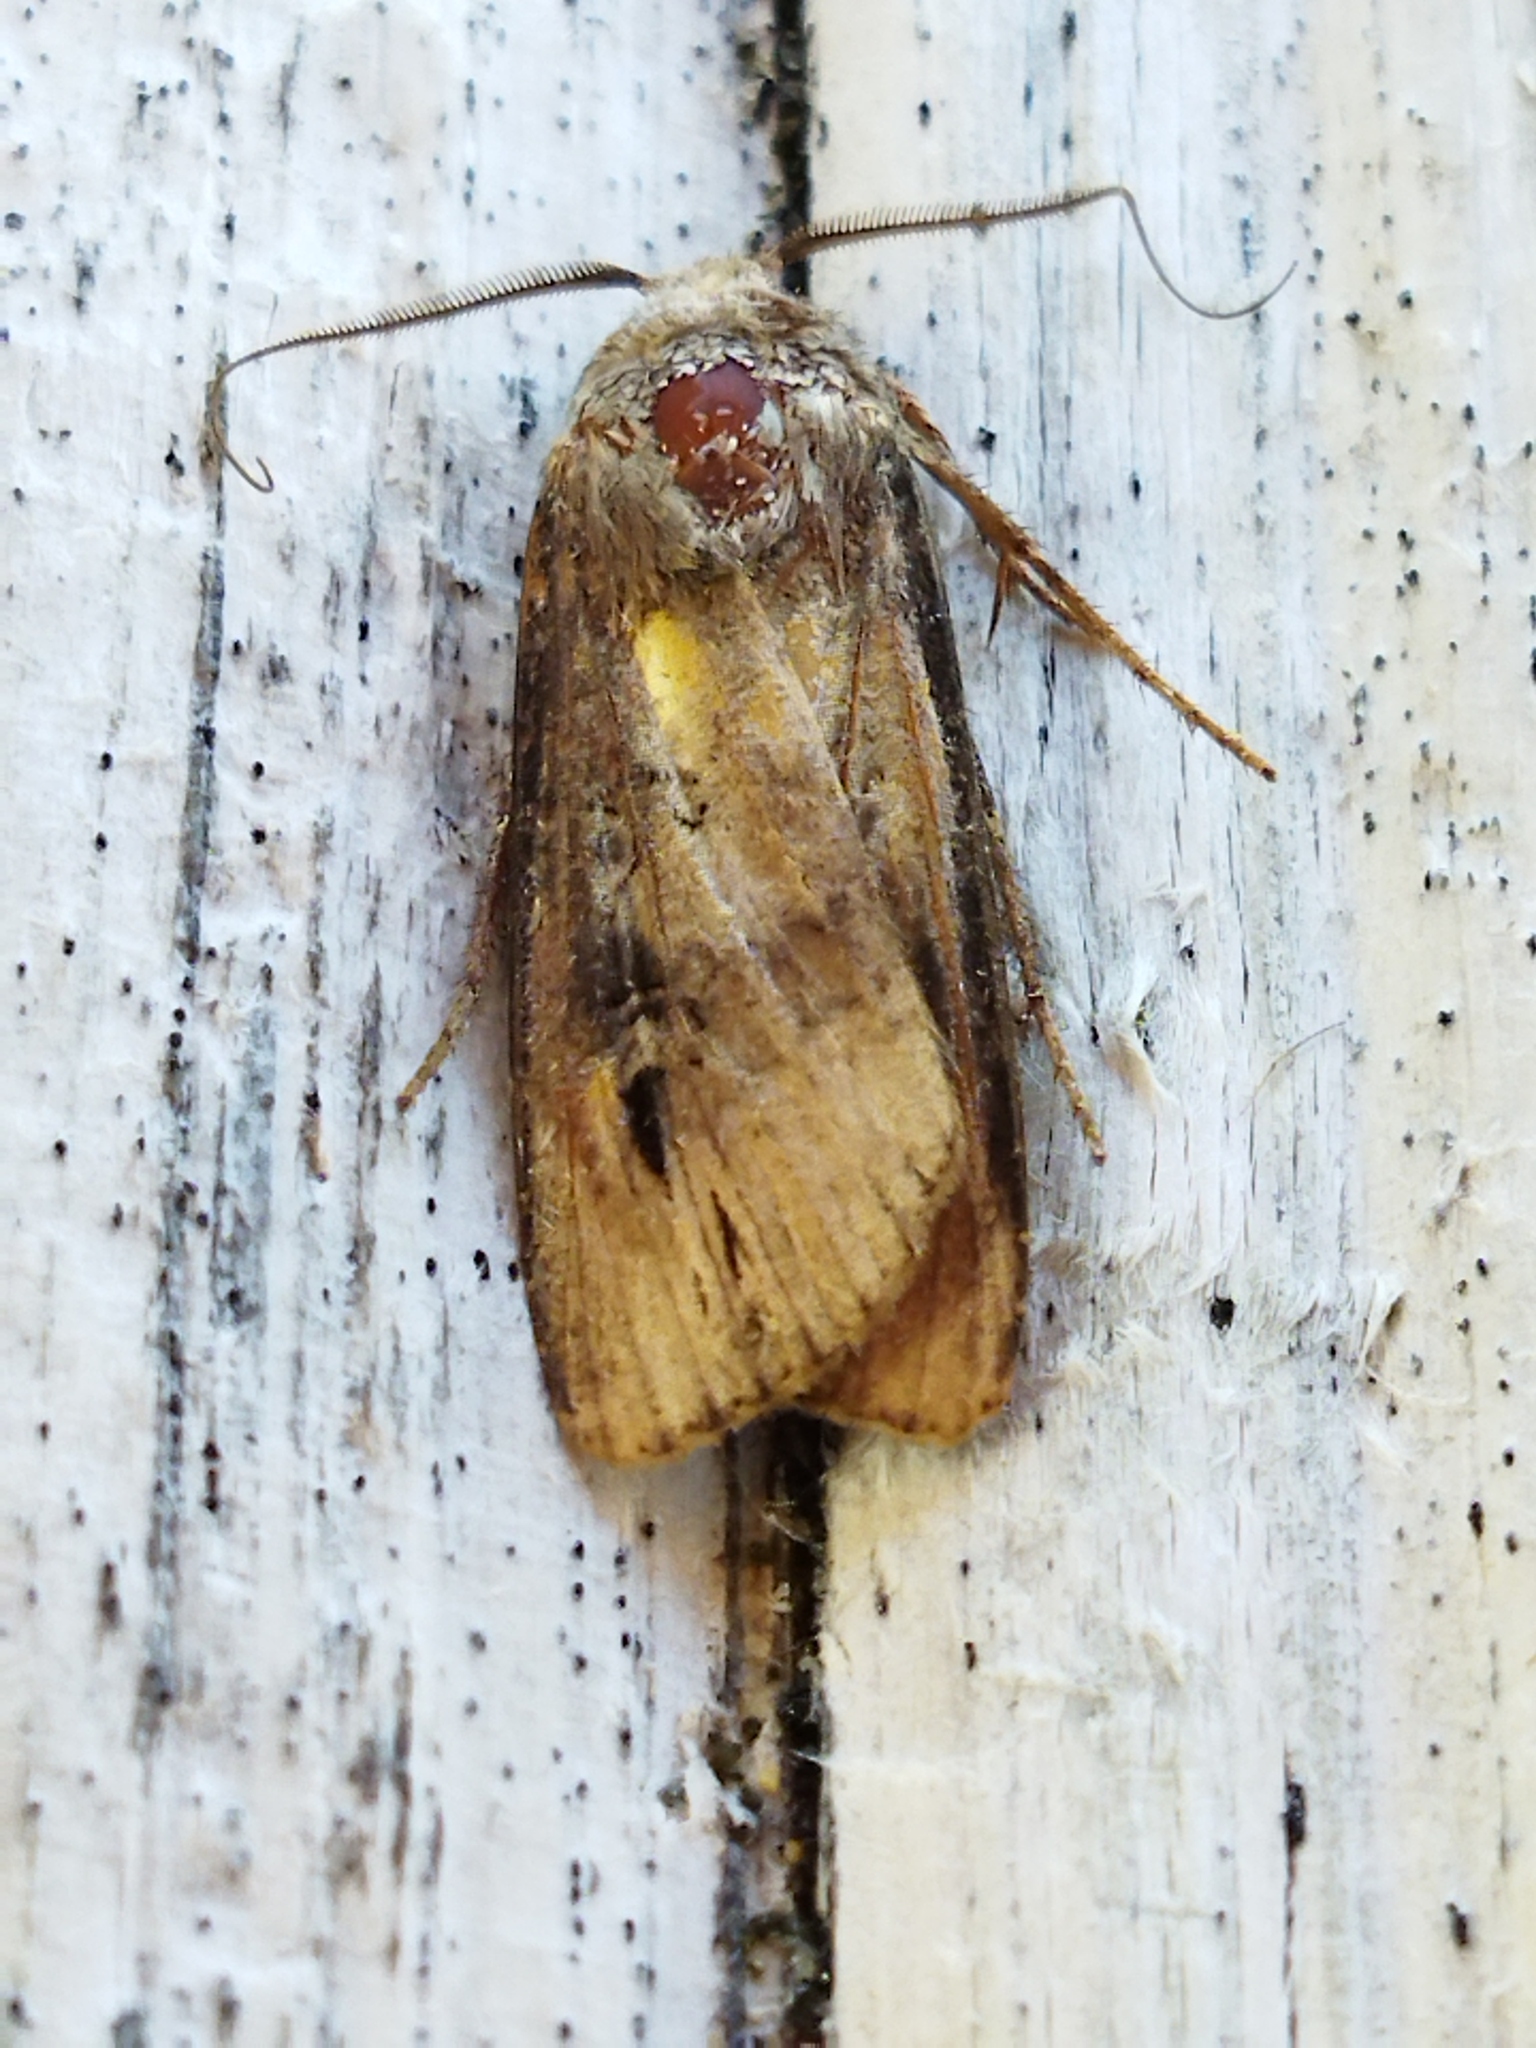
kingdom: Animalia
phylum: Arthropoda
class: Insecta
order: Lepidoptera
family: Noctuidae
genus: Agrotis
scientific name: Agrotis ipsilon
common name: Dark sword-grass
